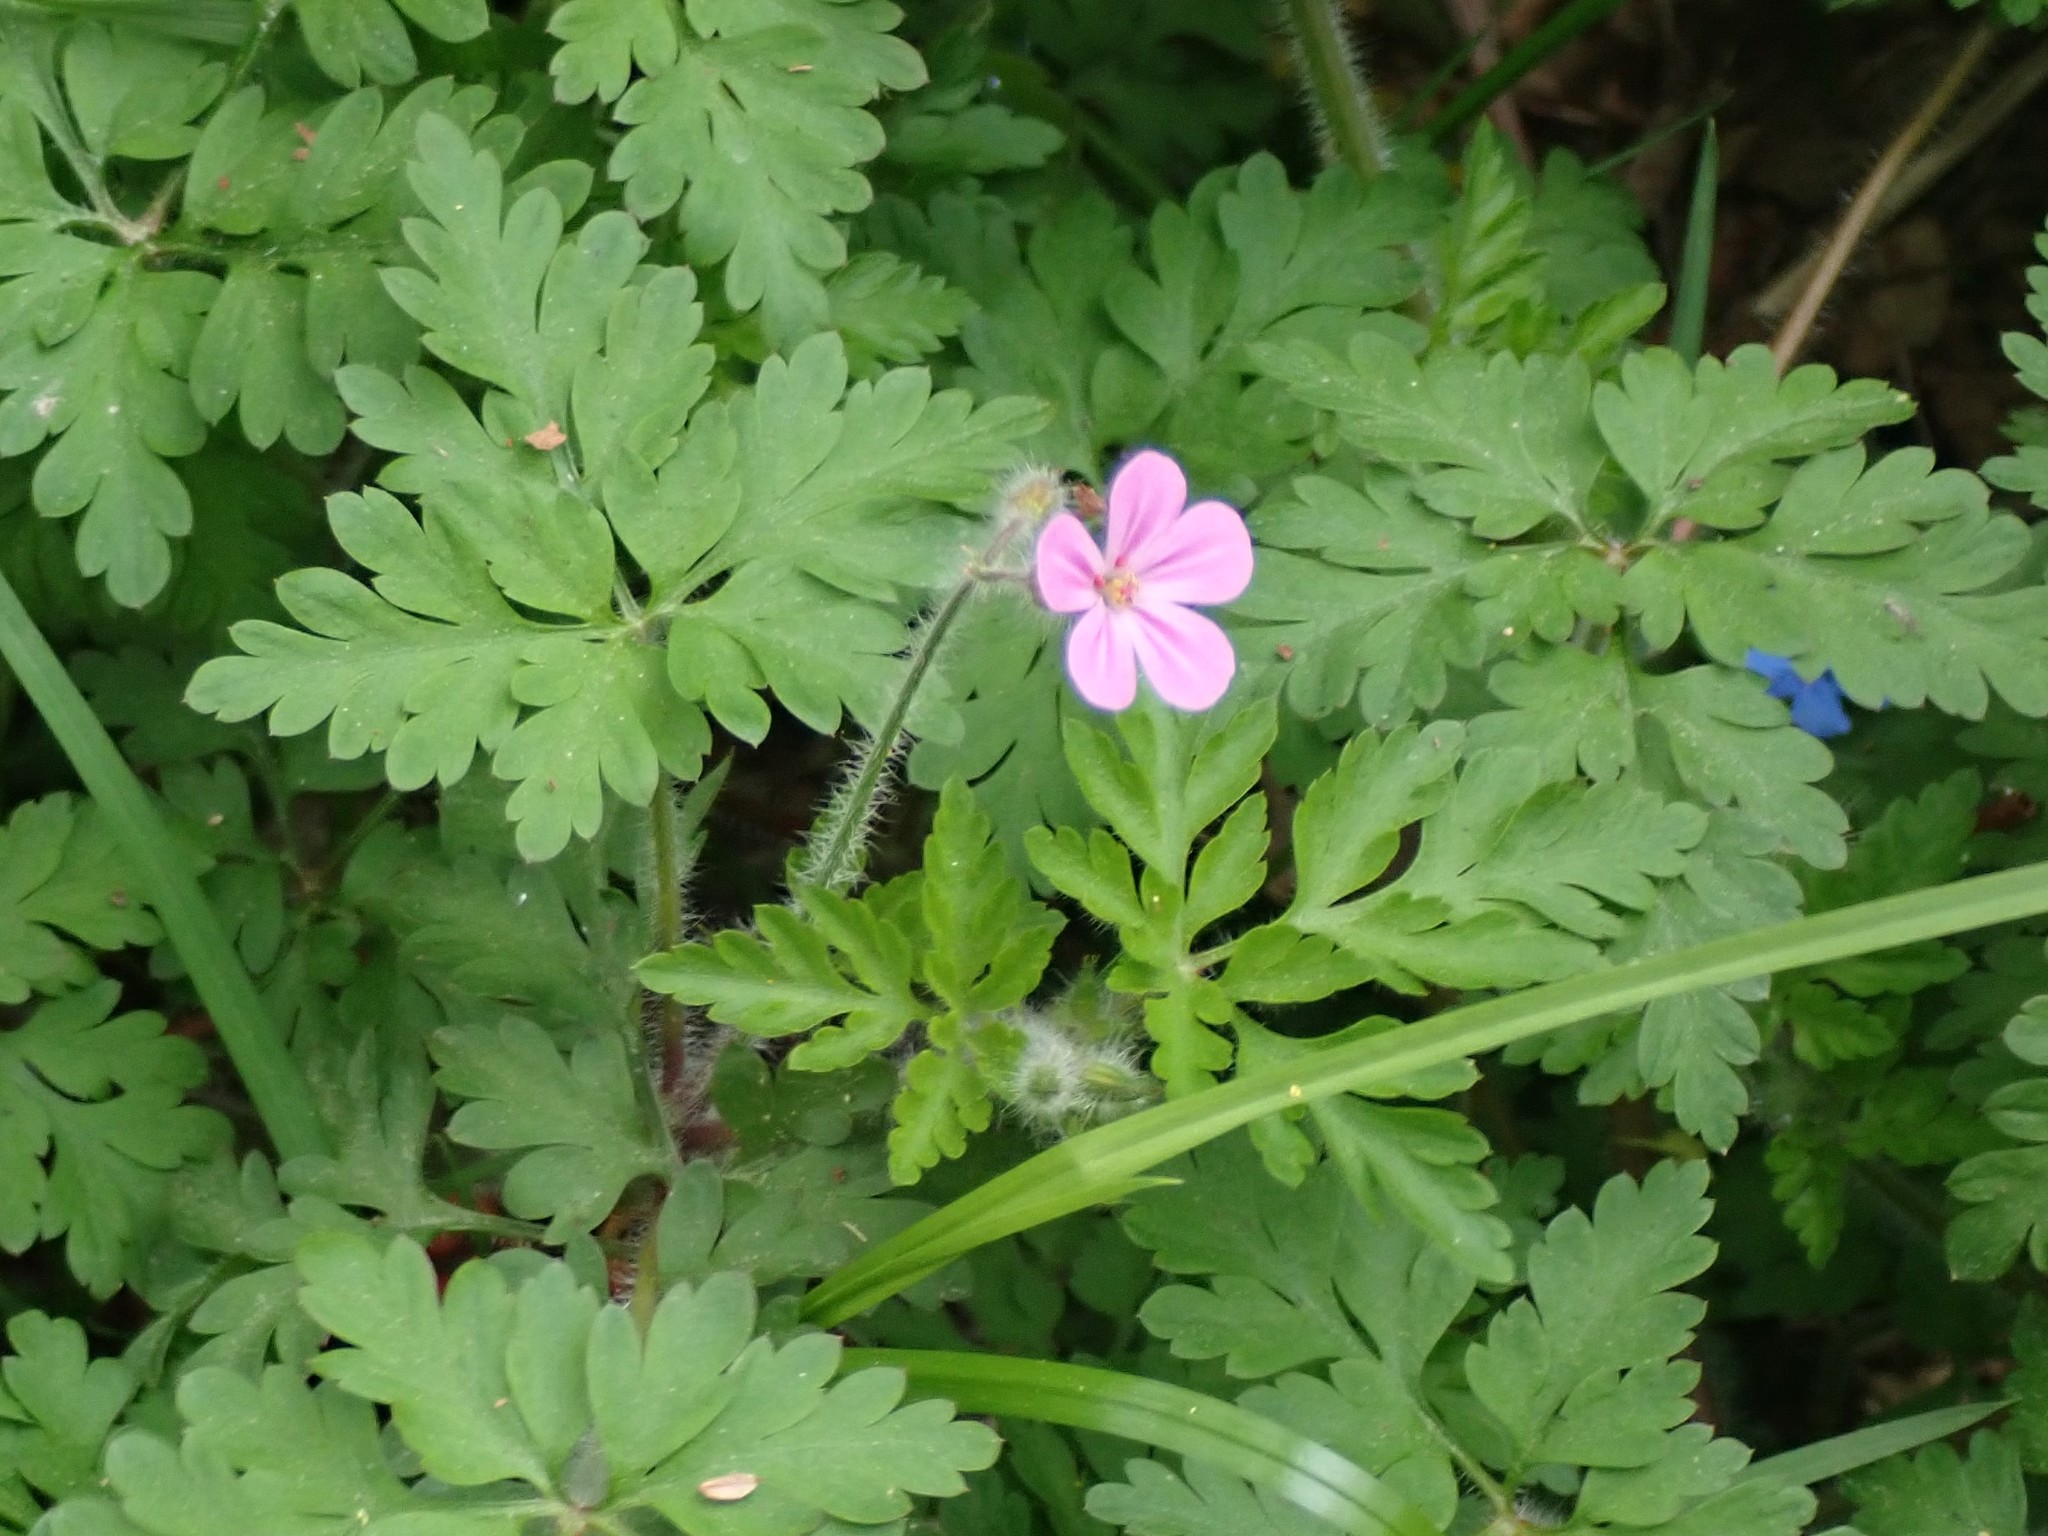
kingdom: Plantae
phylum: Tracheophyta
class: Magnoliopsida
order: Geraniales
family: Geraniaceae
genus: Geranium
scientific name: Geranium robertianum
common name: Herb-robert
